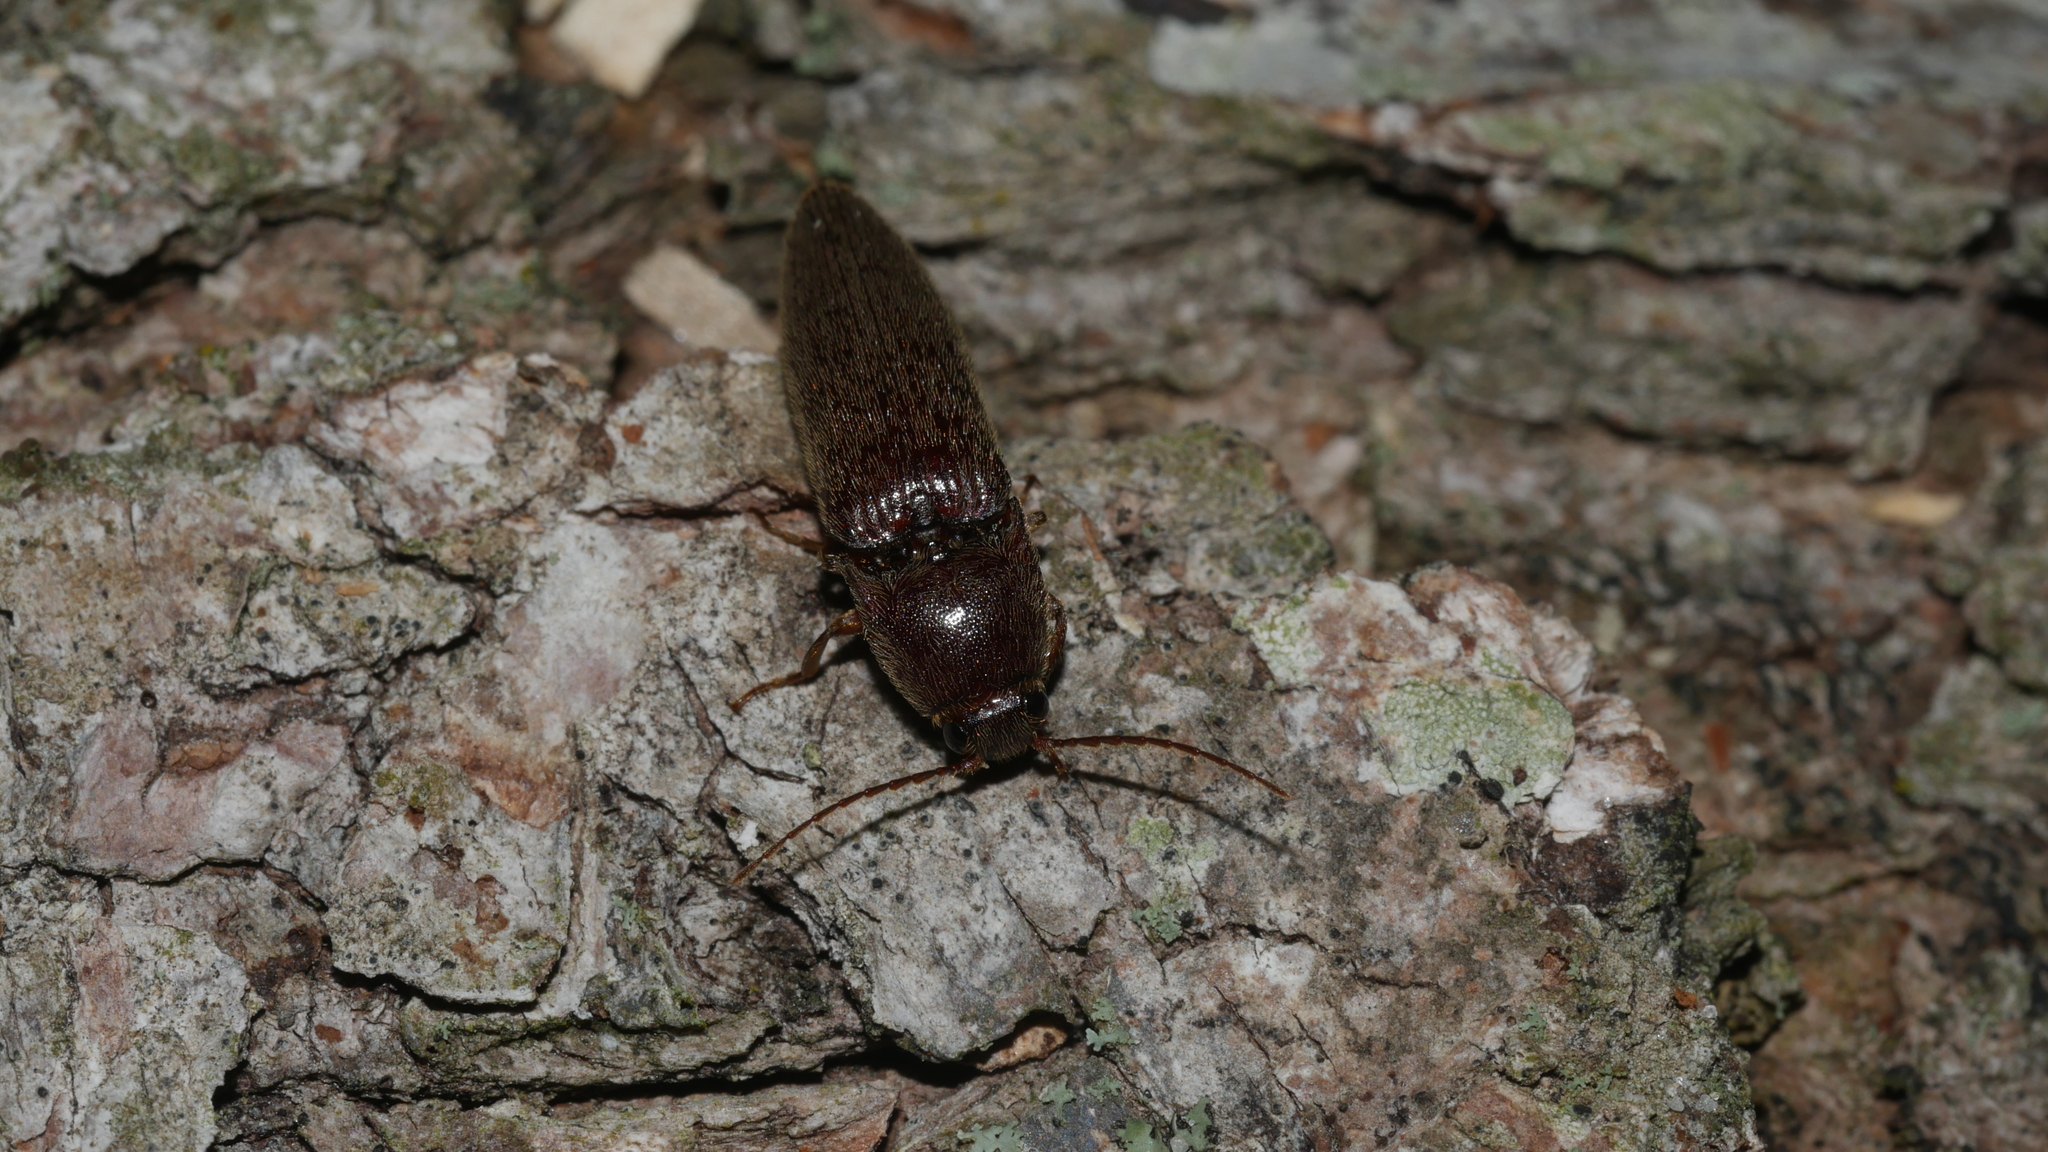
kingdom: Animalia
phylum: Arthropoda
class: Insecta
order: Coleoptera
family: Elateridae
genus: Melanotus
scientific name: Melanotus
